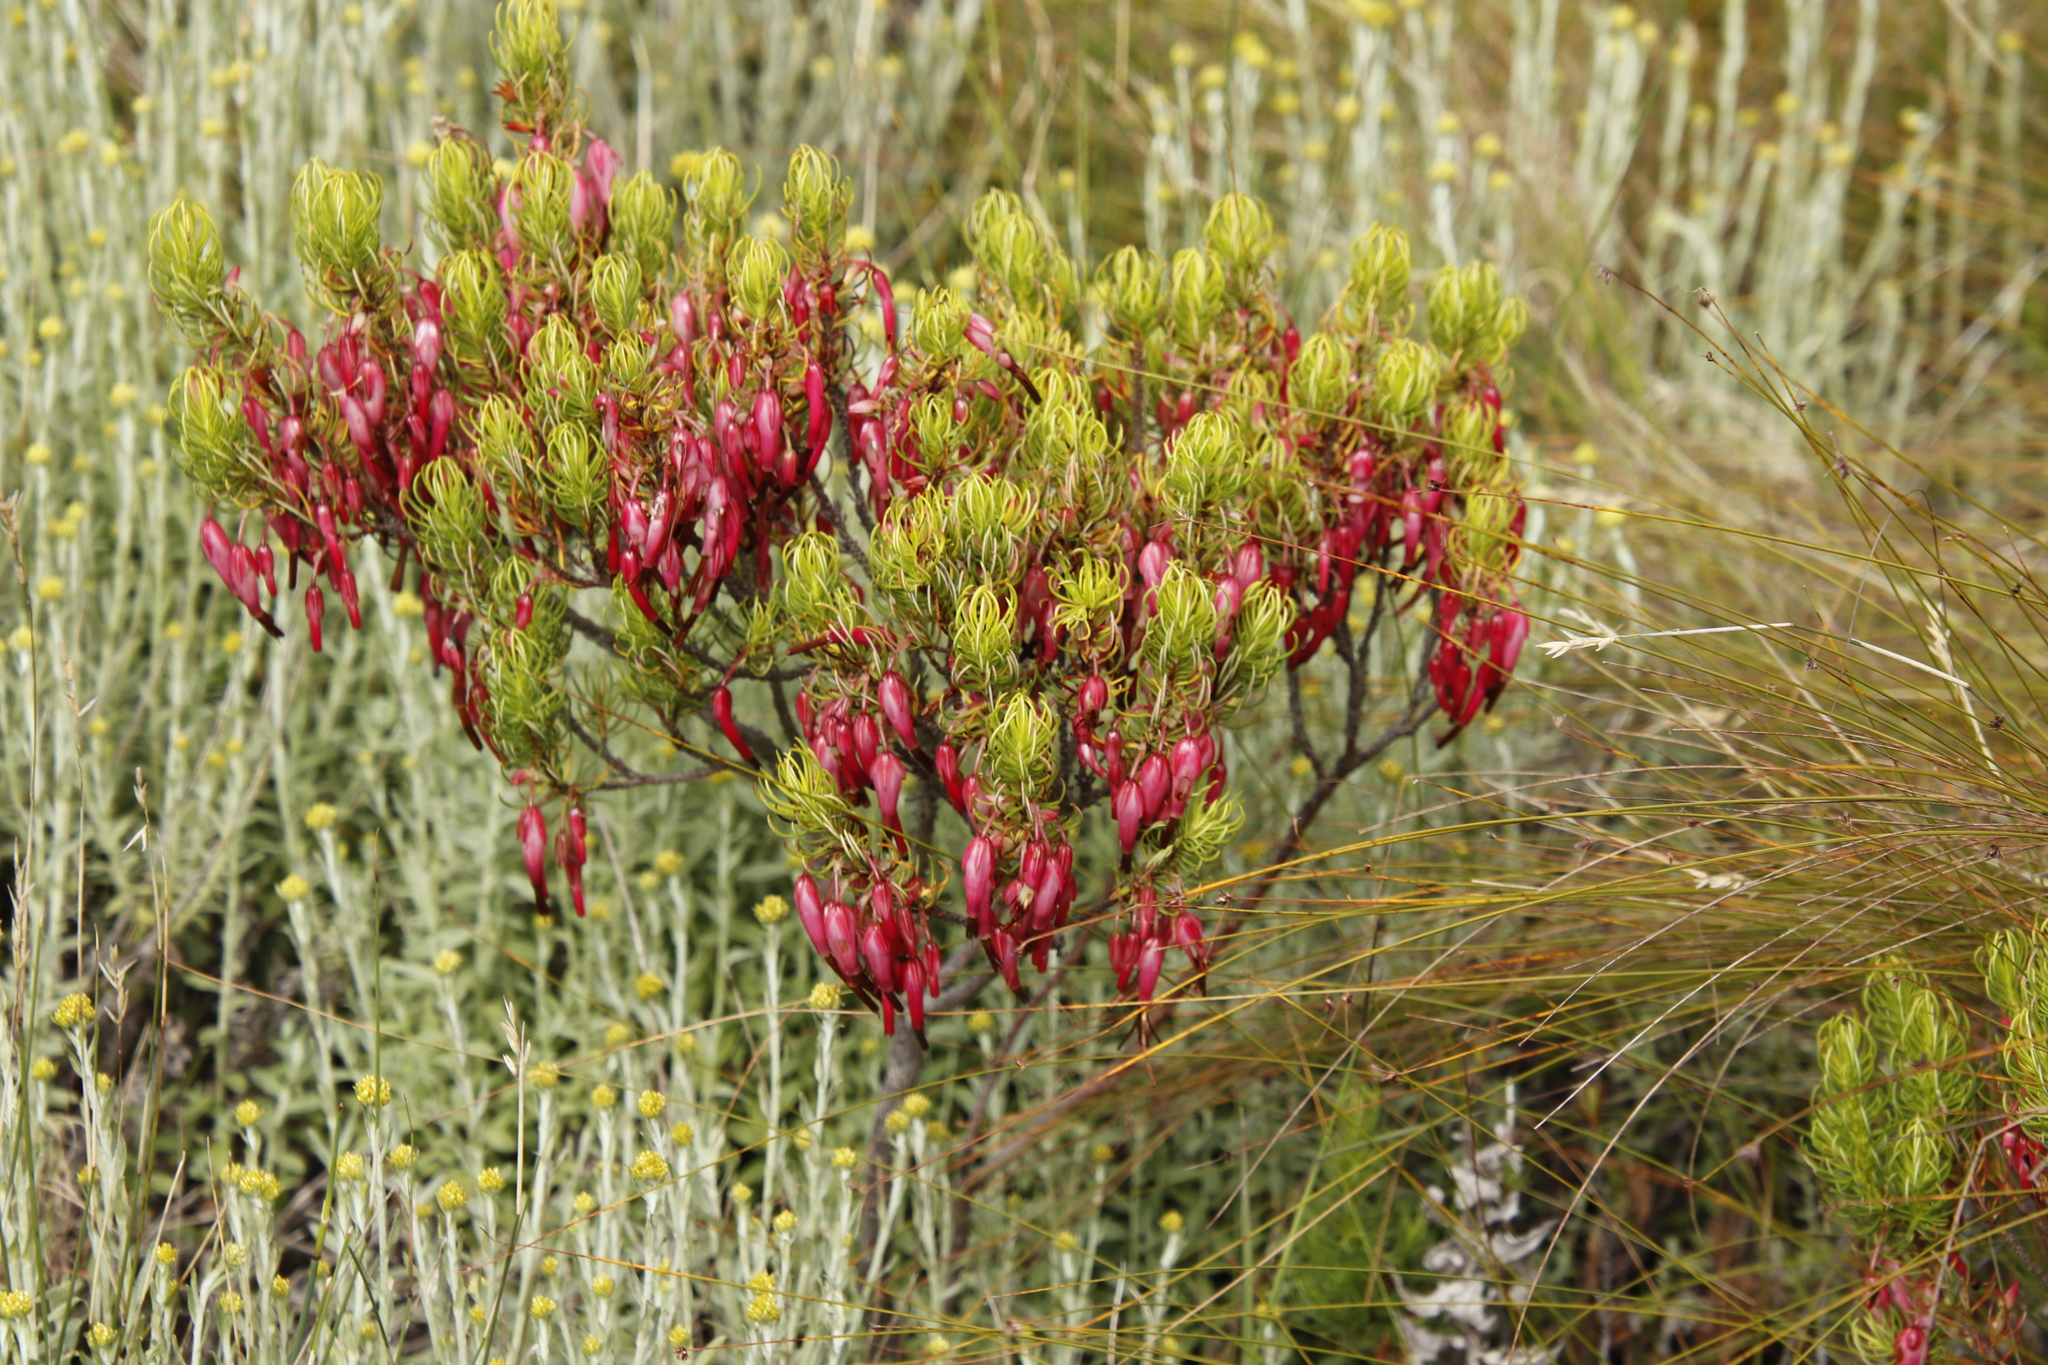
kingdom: Plantae
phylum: Tracheophyta
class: Magnoliopsida
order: Ericales
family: Ericaceae
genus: Erica
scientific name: Erica plukenetii
